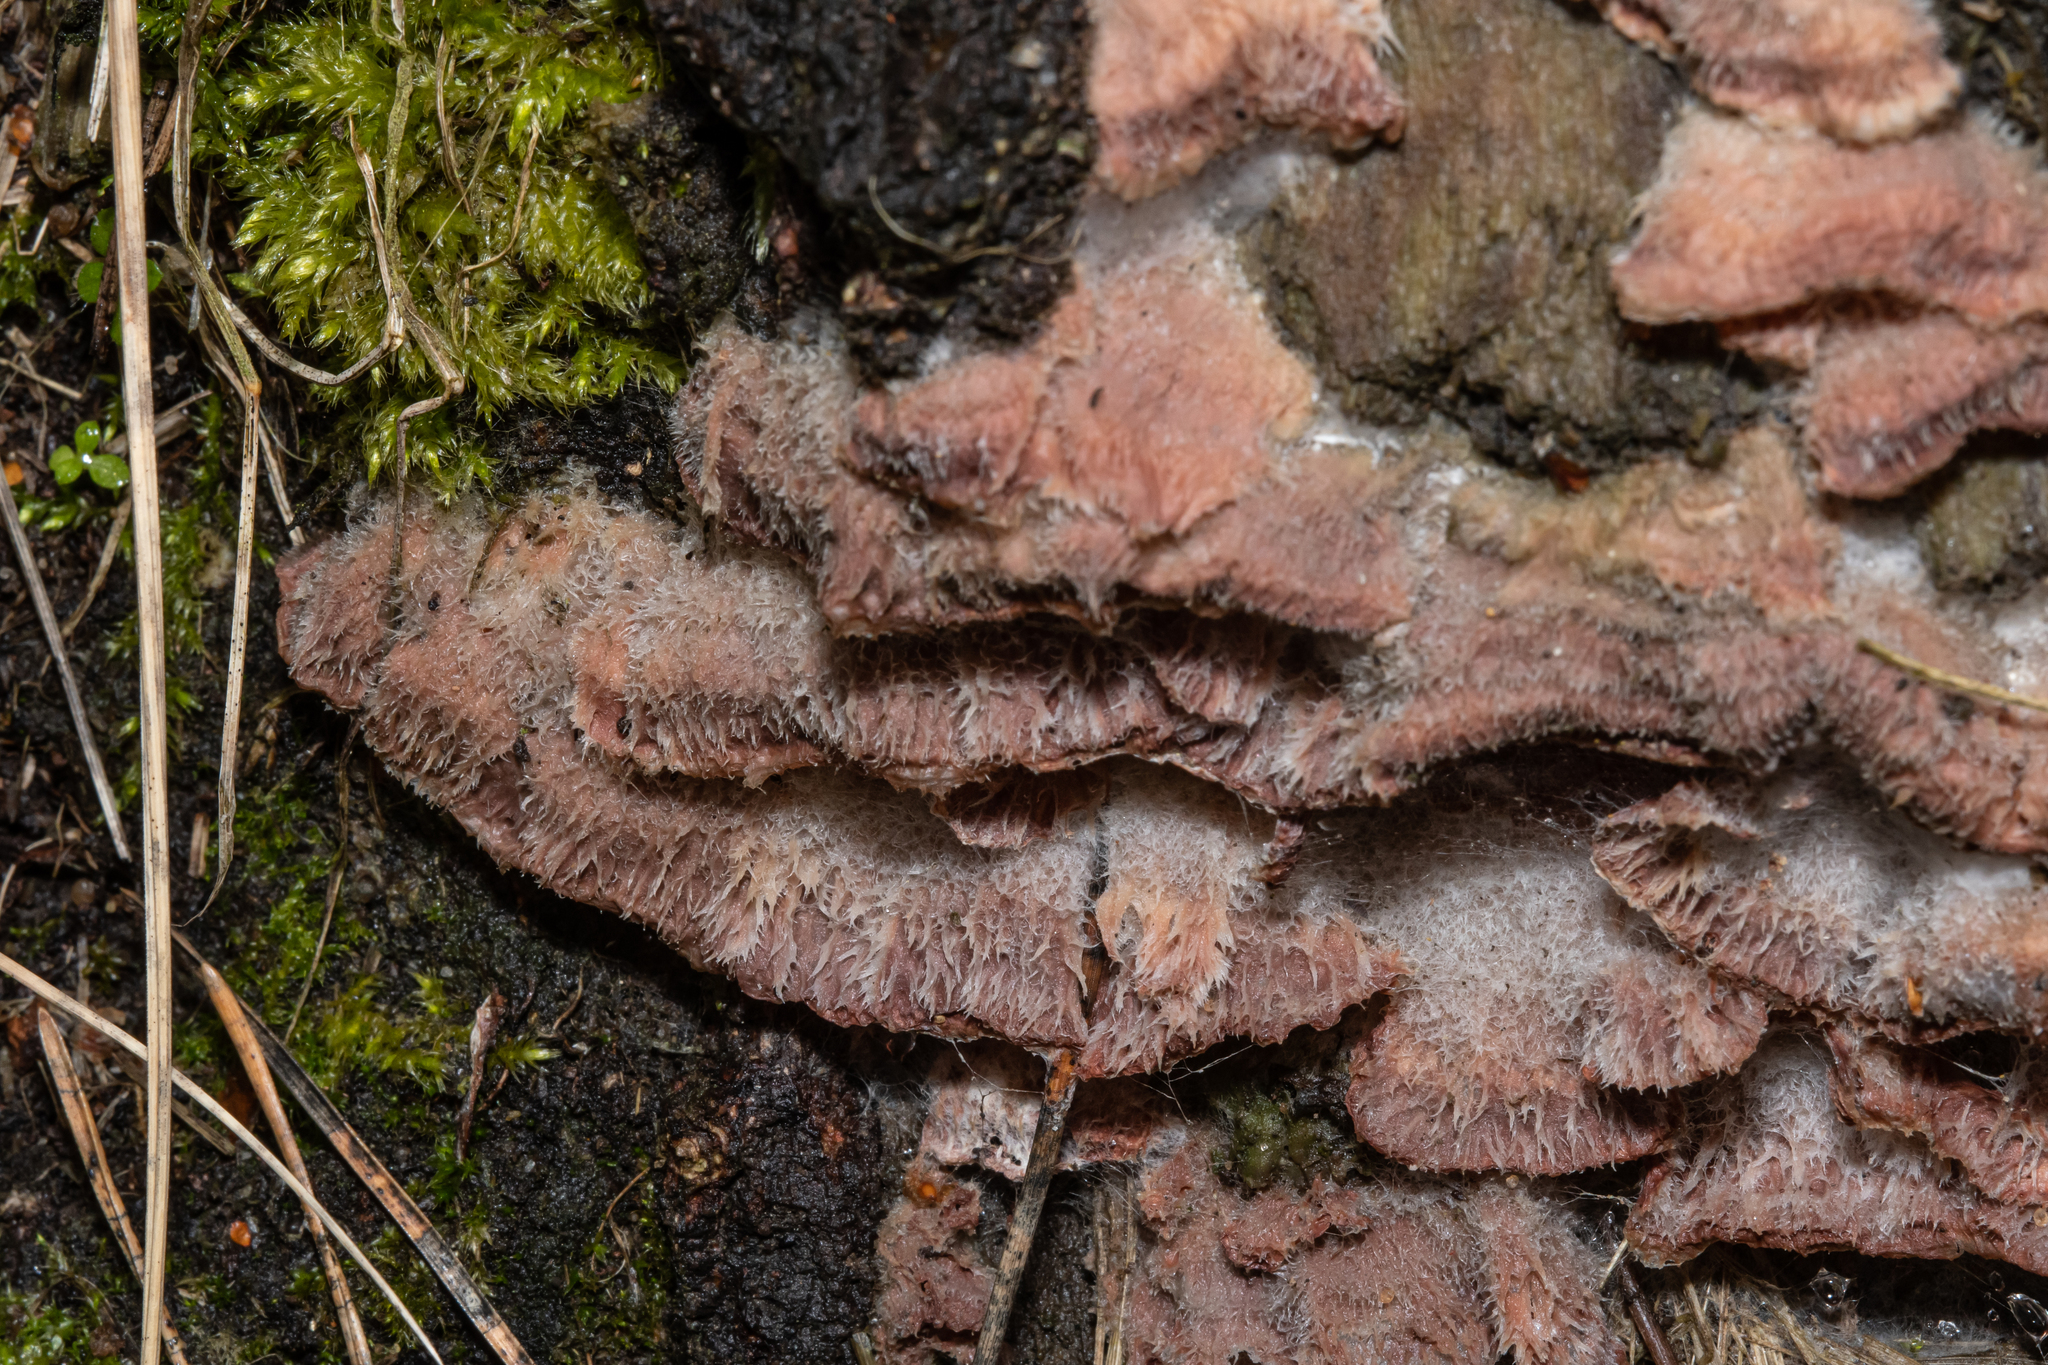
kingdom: Fungi
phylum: Basidiomycota
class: Agaricomycetes
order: Polyporales
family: Meruliaceae
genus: Phlebia
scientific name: Phlebia tremellosa
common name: Jelly rot
